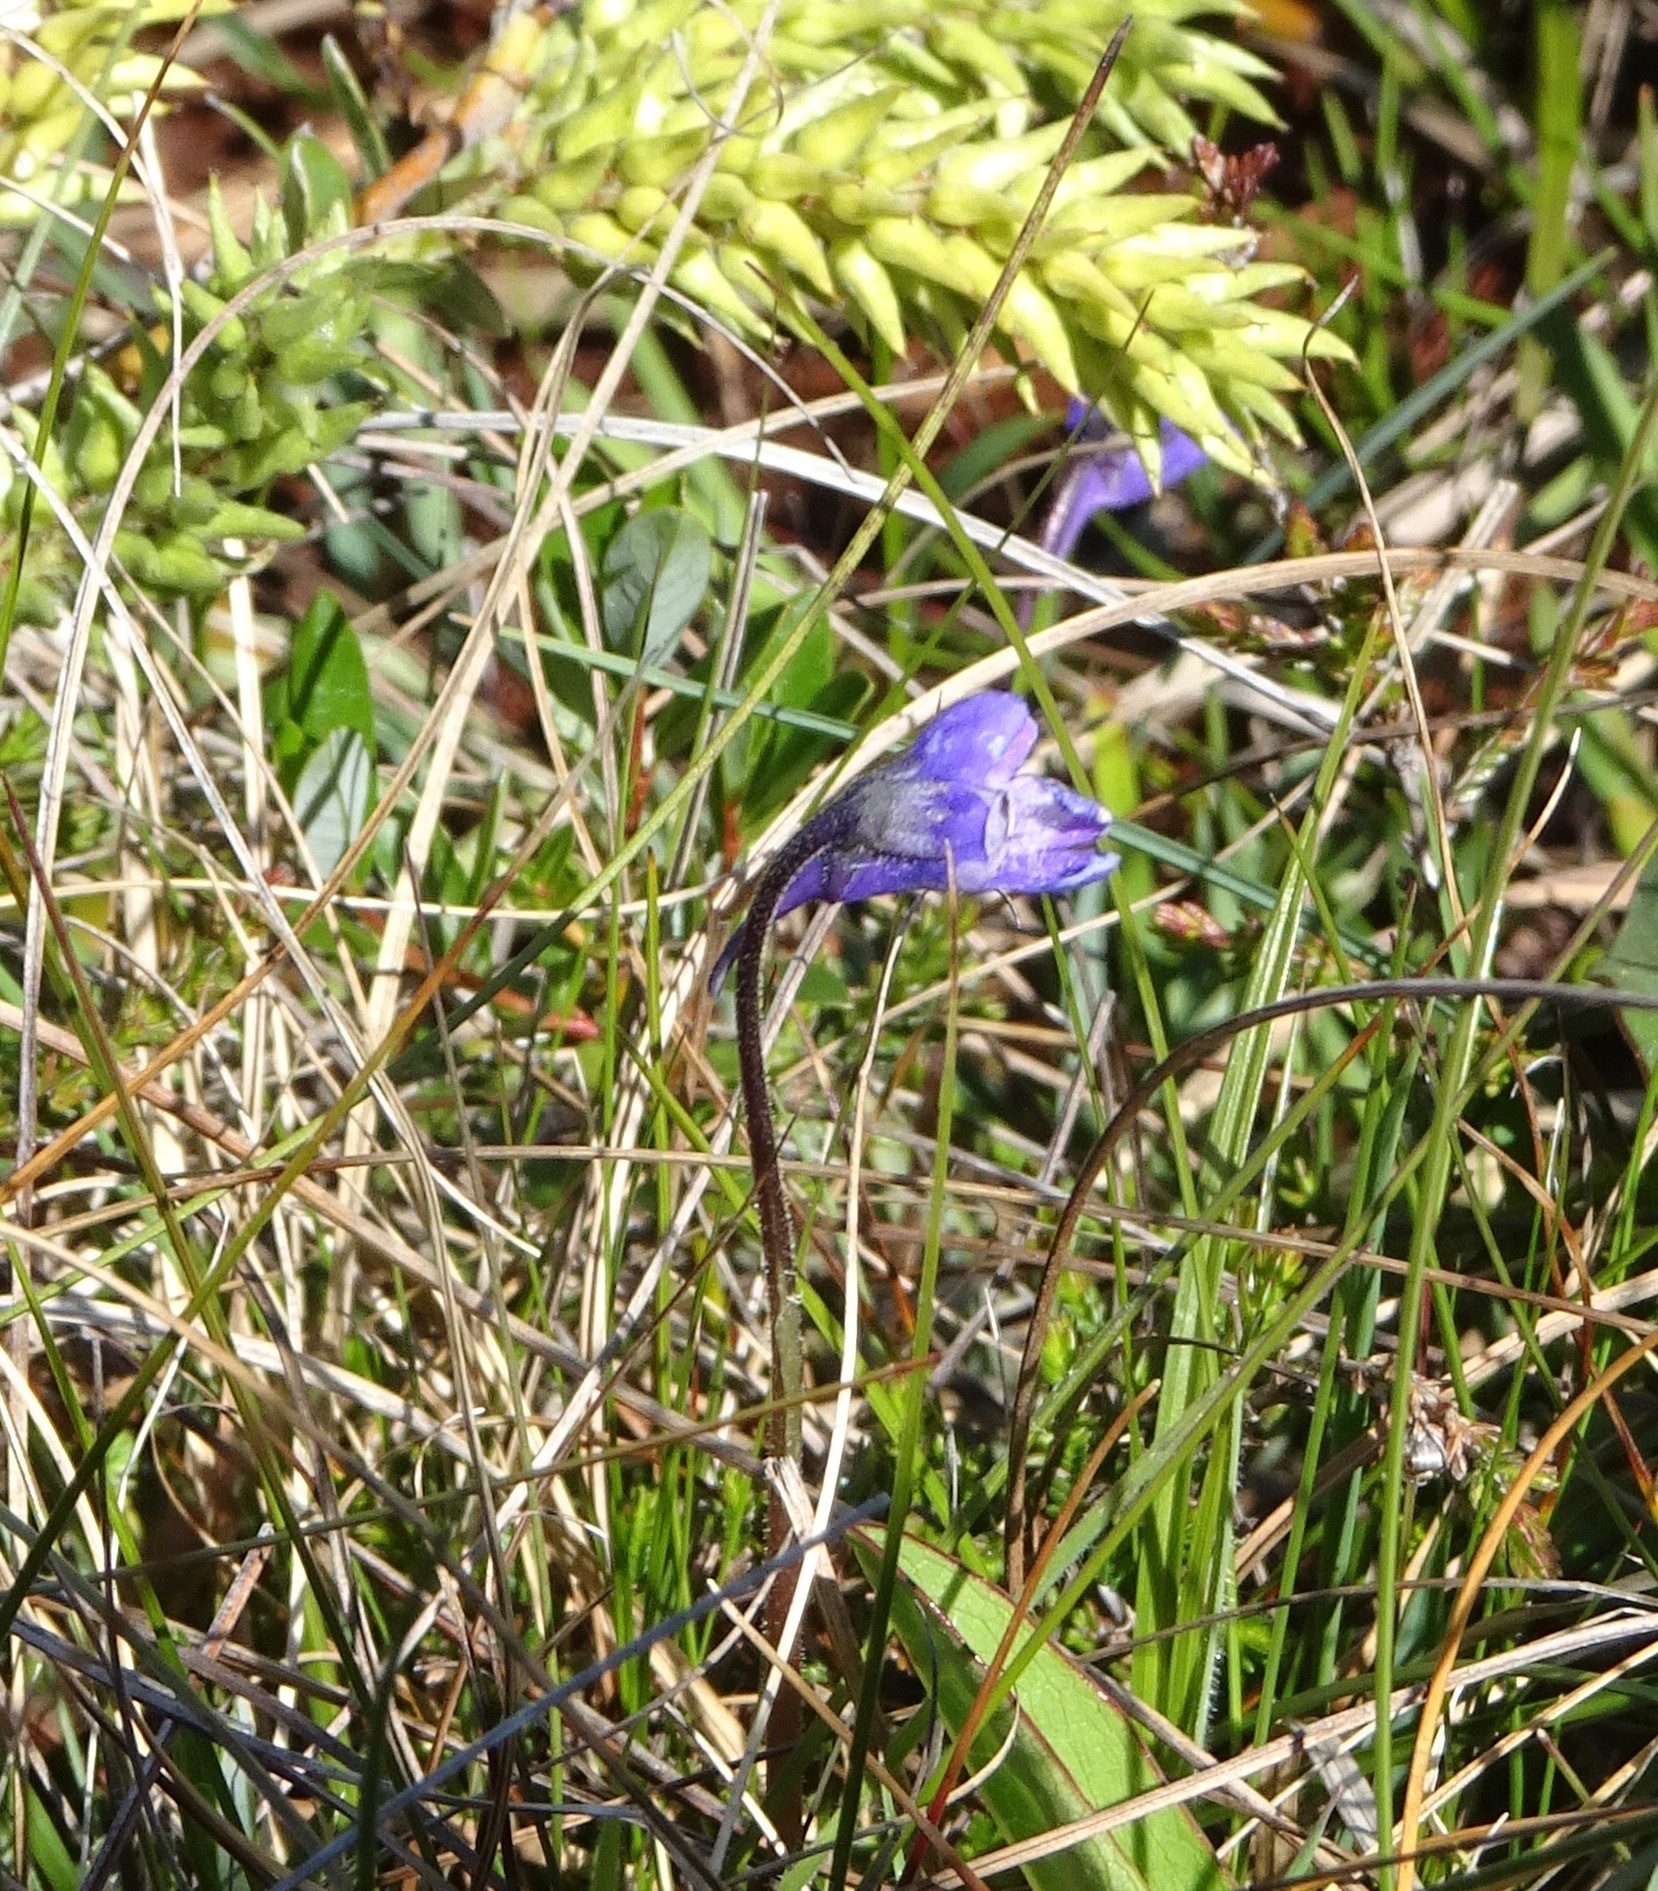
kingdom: Plantae
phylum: Tracheophyta
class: Magnoliopsida
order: Lamiales
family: Lentibulariaceae
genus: Pinguicula
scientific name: Pinguicula vulgaris
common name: Common butterwort
